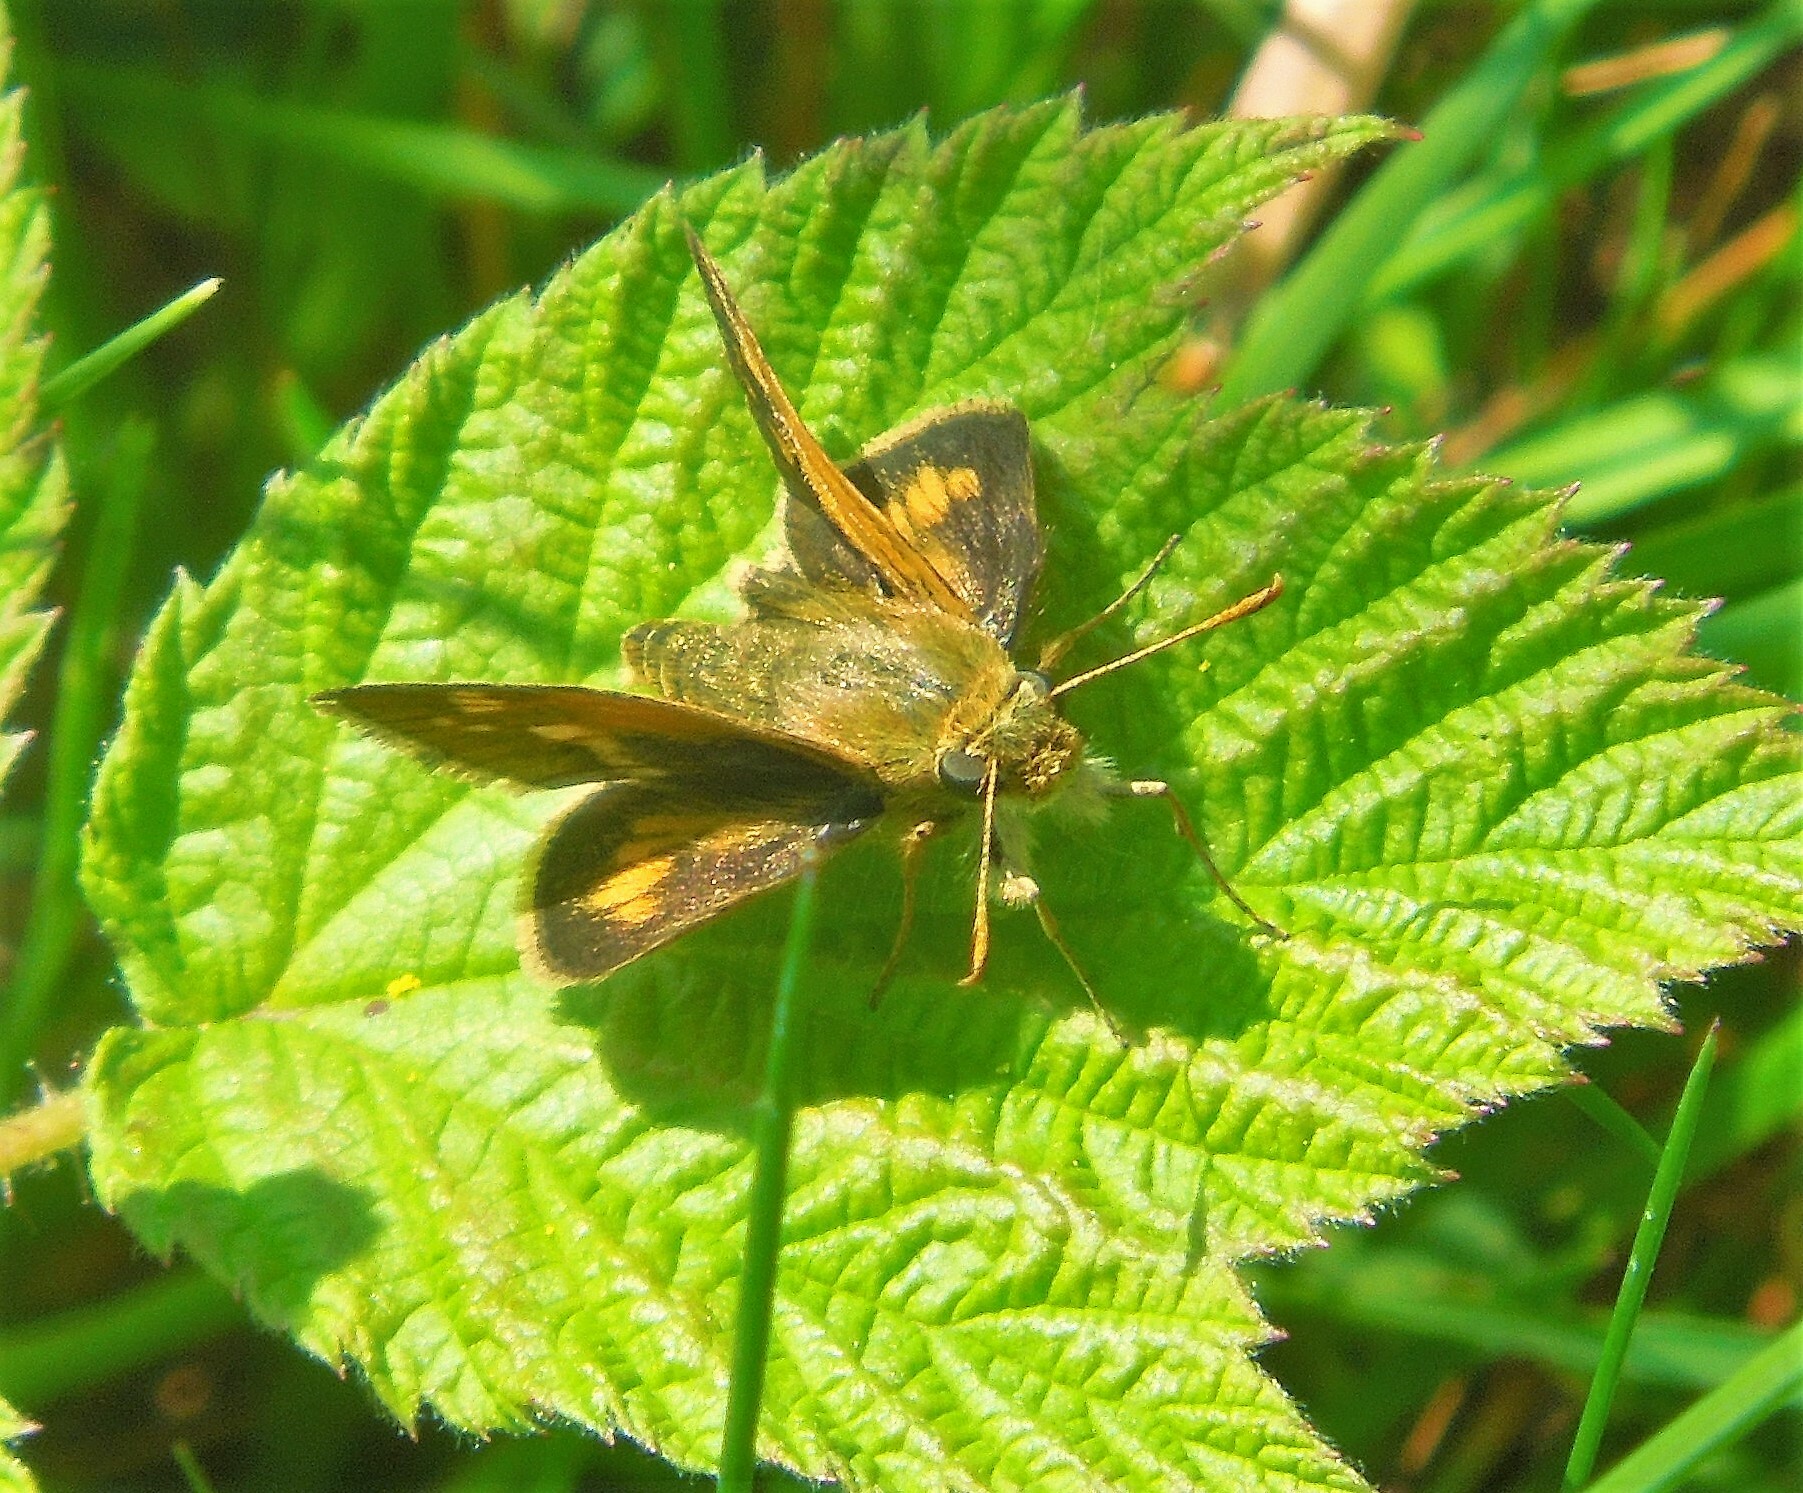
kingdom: Animalia
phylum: Arthropoda
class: Insecta
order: Lepidoptera
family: Hesperiidae
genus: Polites
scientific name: Polites coras
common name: Peck's skipper
